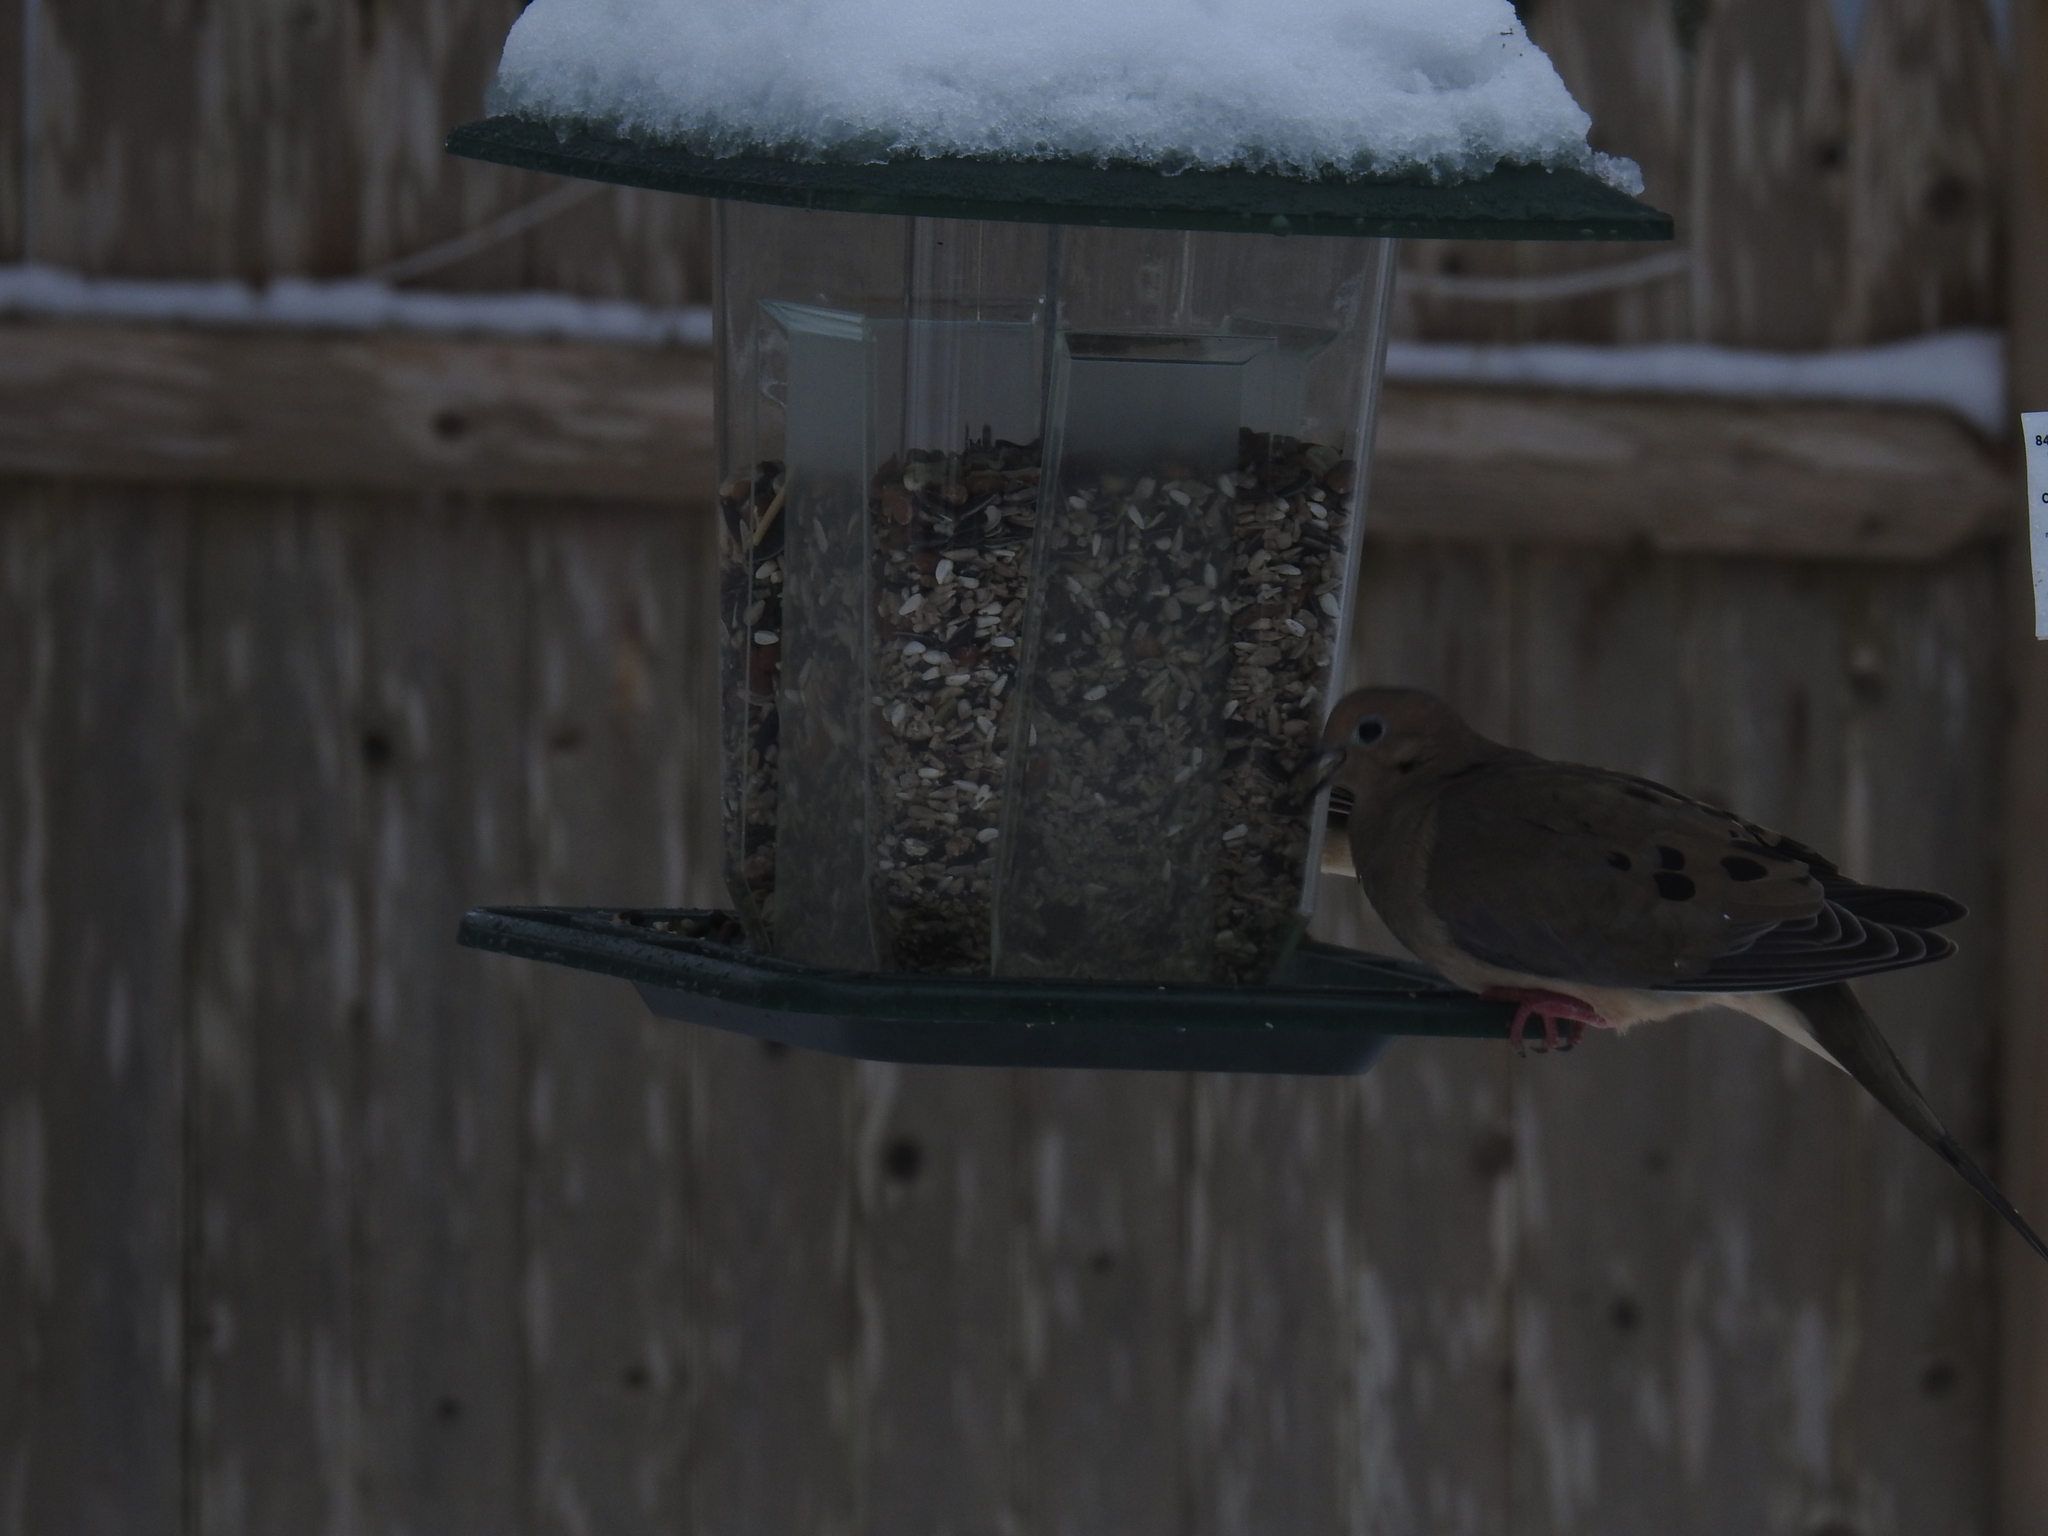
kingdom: Animalia
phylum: Chordata
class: Aves
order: Columbiformes
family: Columbidae
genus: Zenaida
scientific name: Zenaida macroura
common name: Mourning dove
